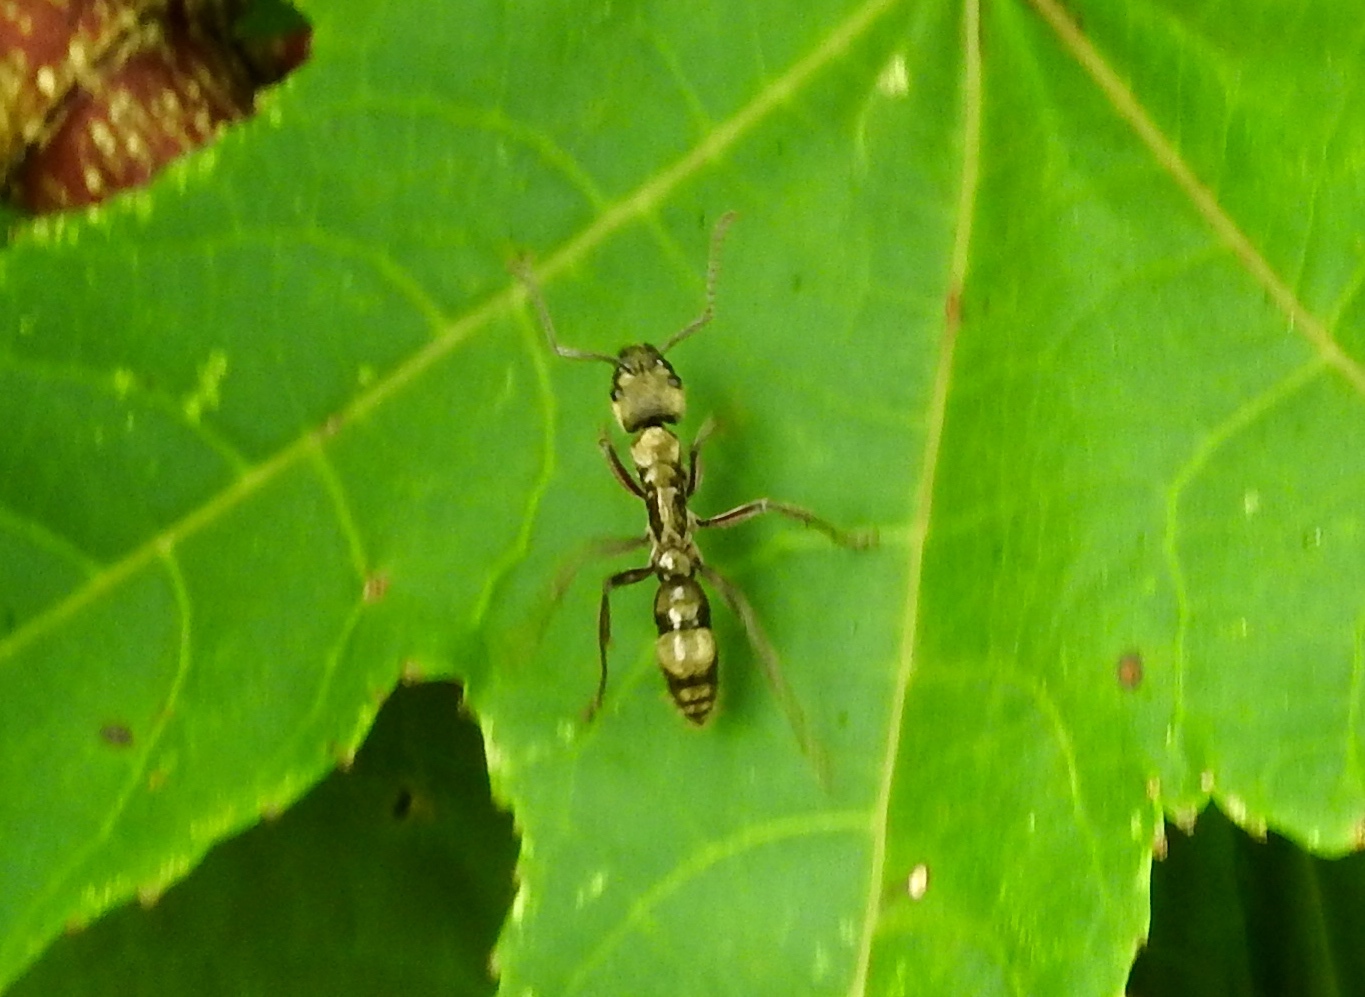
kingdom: Animalia
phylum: Arthropoda
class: Insecta
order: Hymenoptera
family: Formicidae
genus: Pachycondyla
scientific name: Pachycondyla villosa
